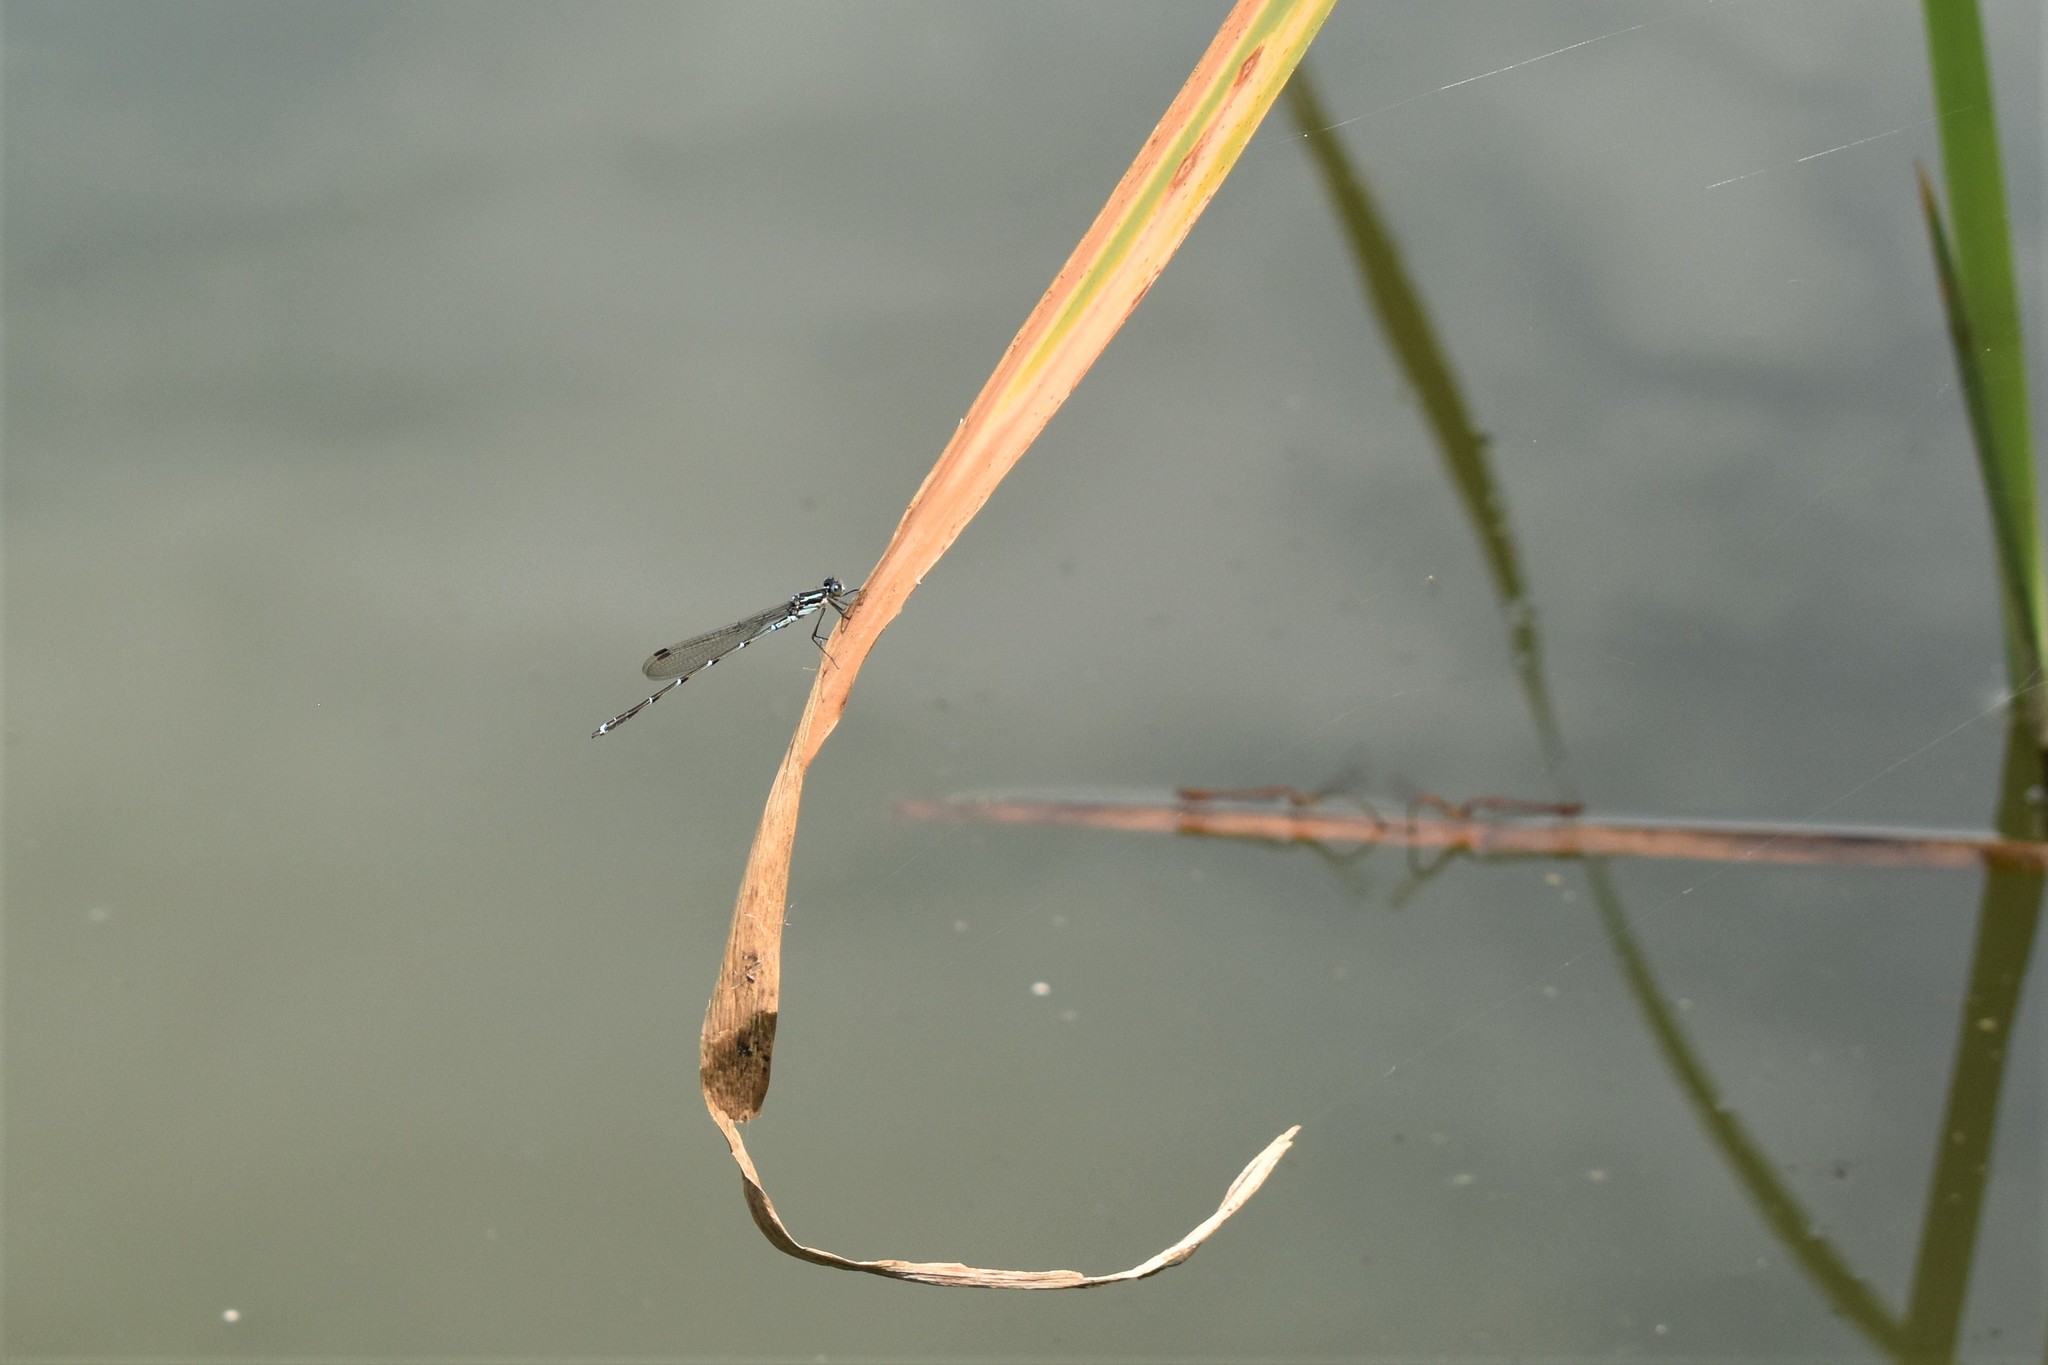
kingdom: Animalia
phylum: Arthropoda
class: Insecta
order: Odonata
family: Lestidae
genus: Austrolestes
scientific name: Austrolestes colensonis
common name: Blue damselfly
